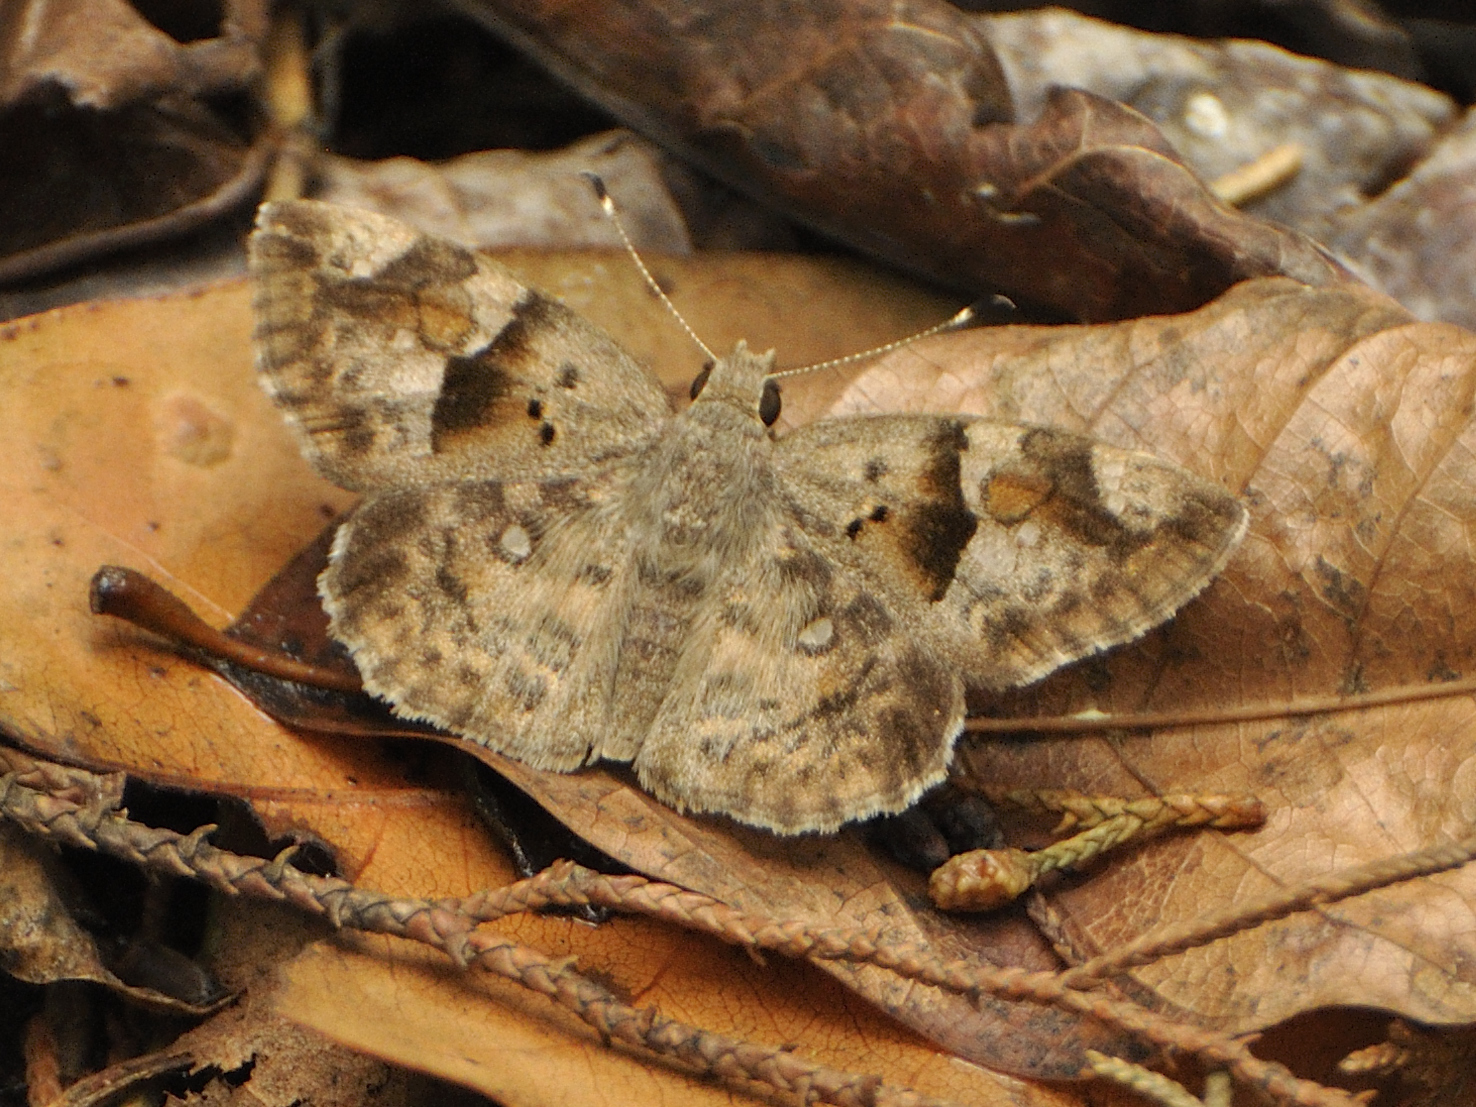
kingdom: Animalia
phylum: Arthropoda
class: Insecta
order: Lepidoptera
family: Hesperiidae
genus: Sarangesa
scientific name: Sarangesa motozi
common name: Forest elfin
